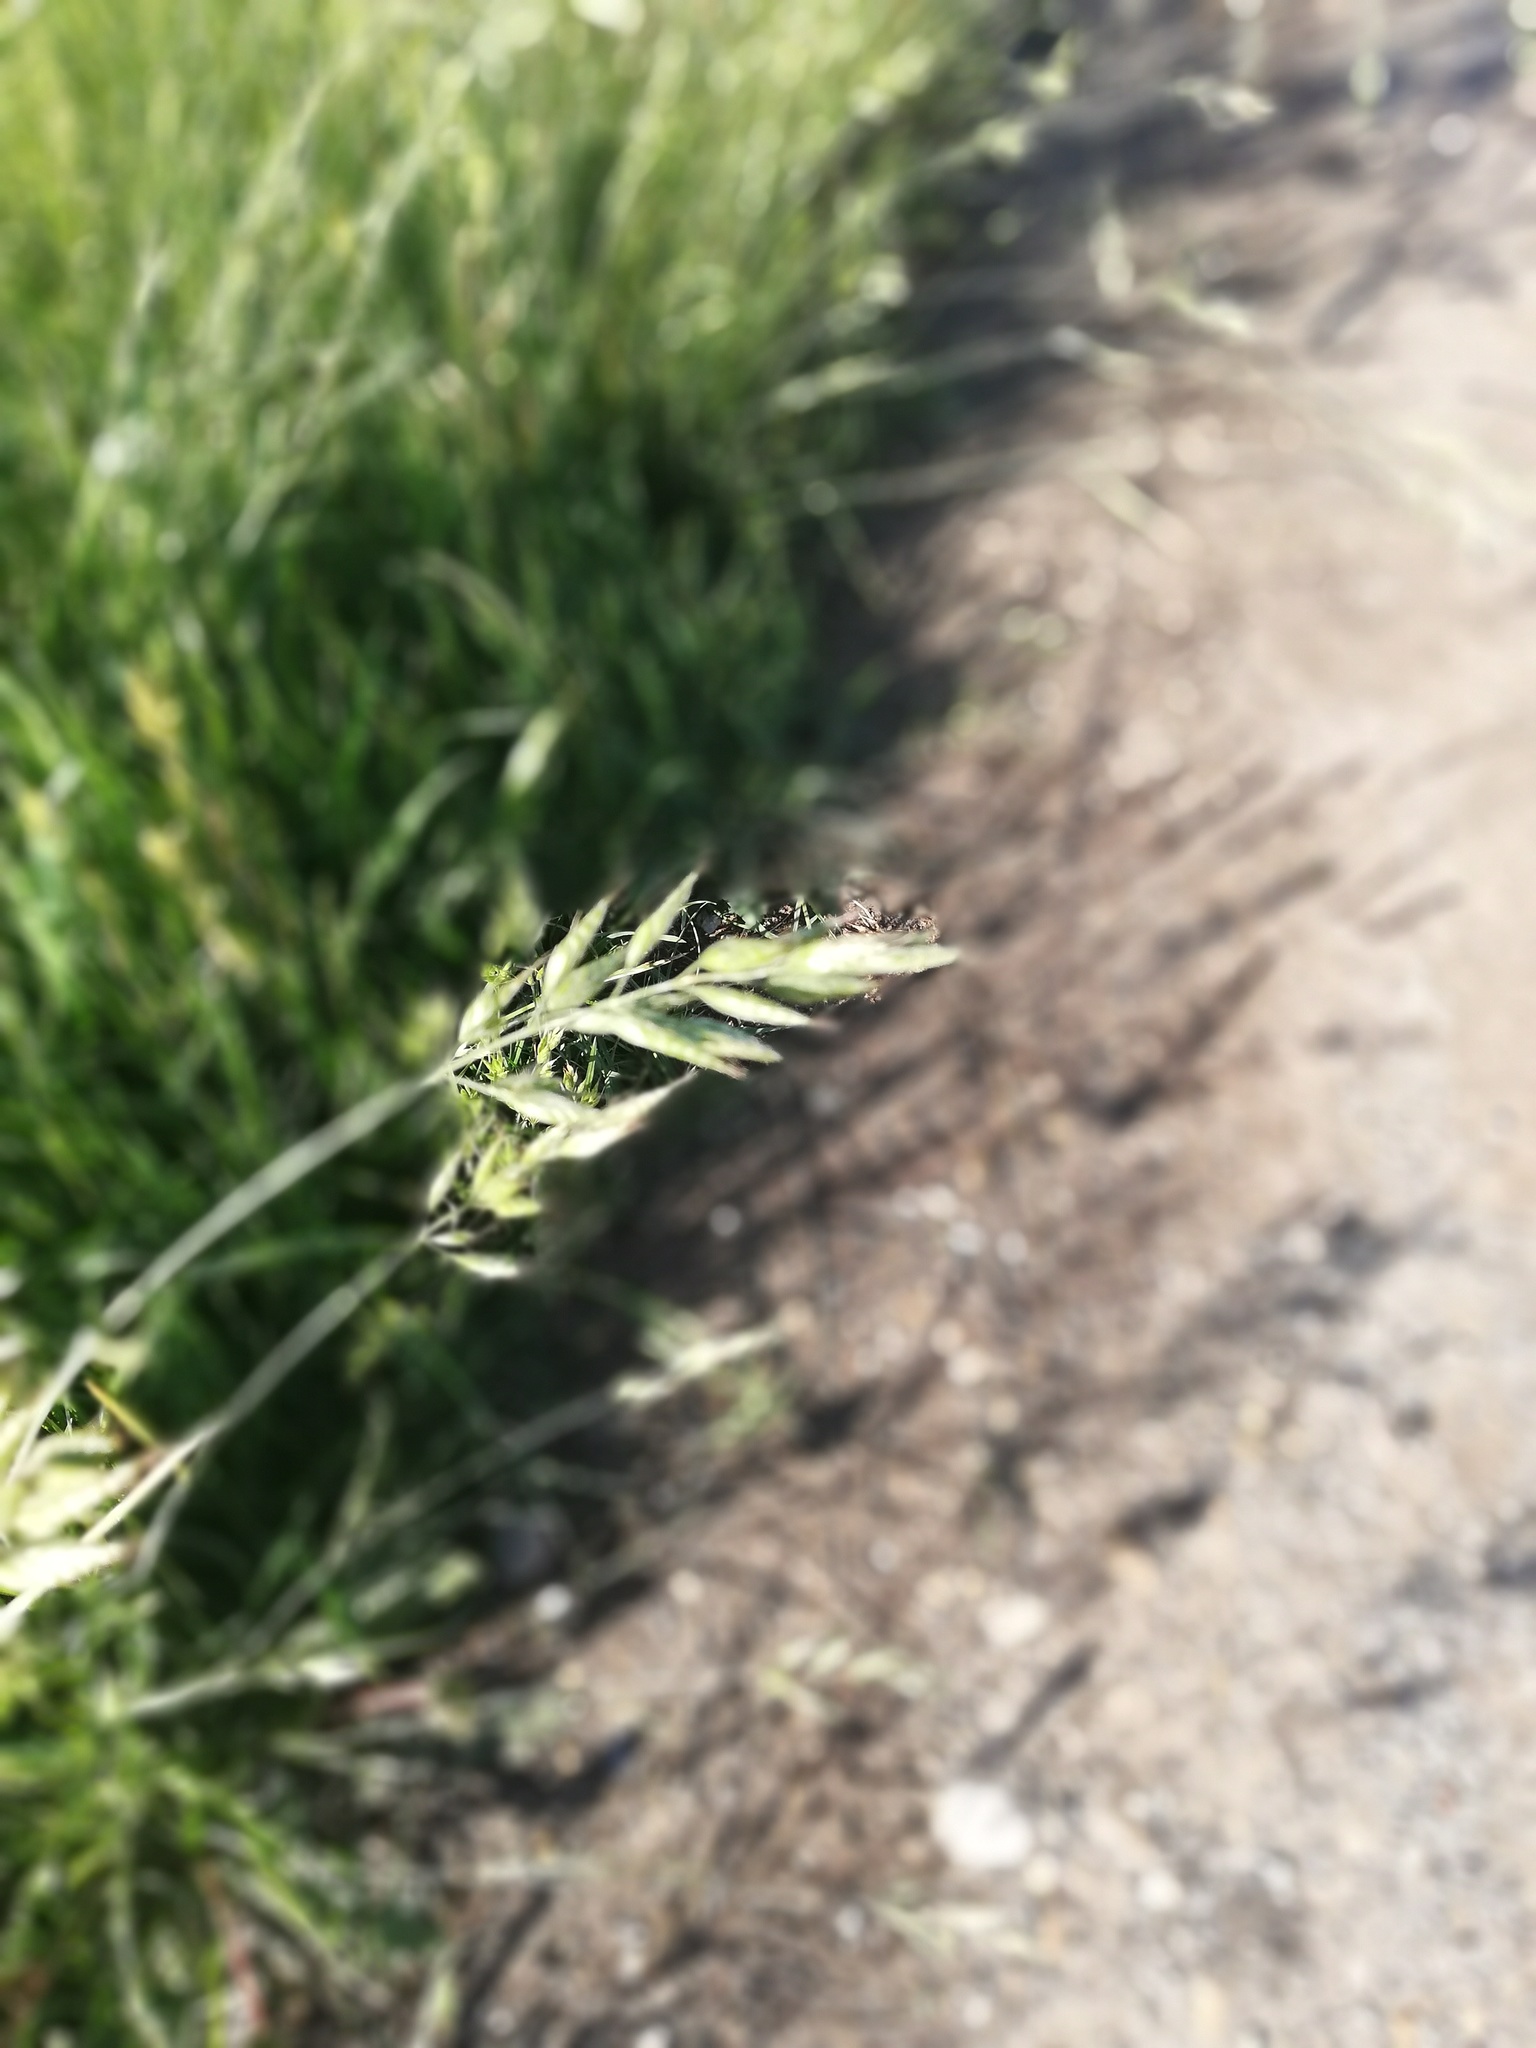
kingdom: Plantae
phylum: Tracheophyta
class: Liliopsida
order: Poales
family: Poaceae
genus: Bromus
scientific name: Bromus hordeaceus
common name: Soft brome
